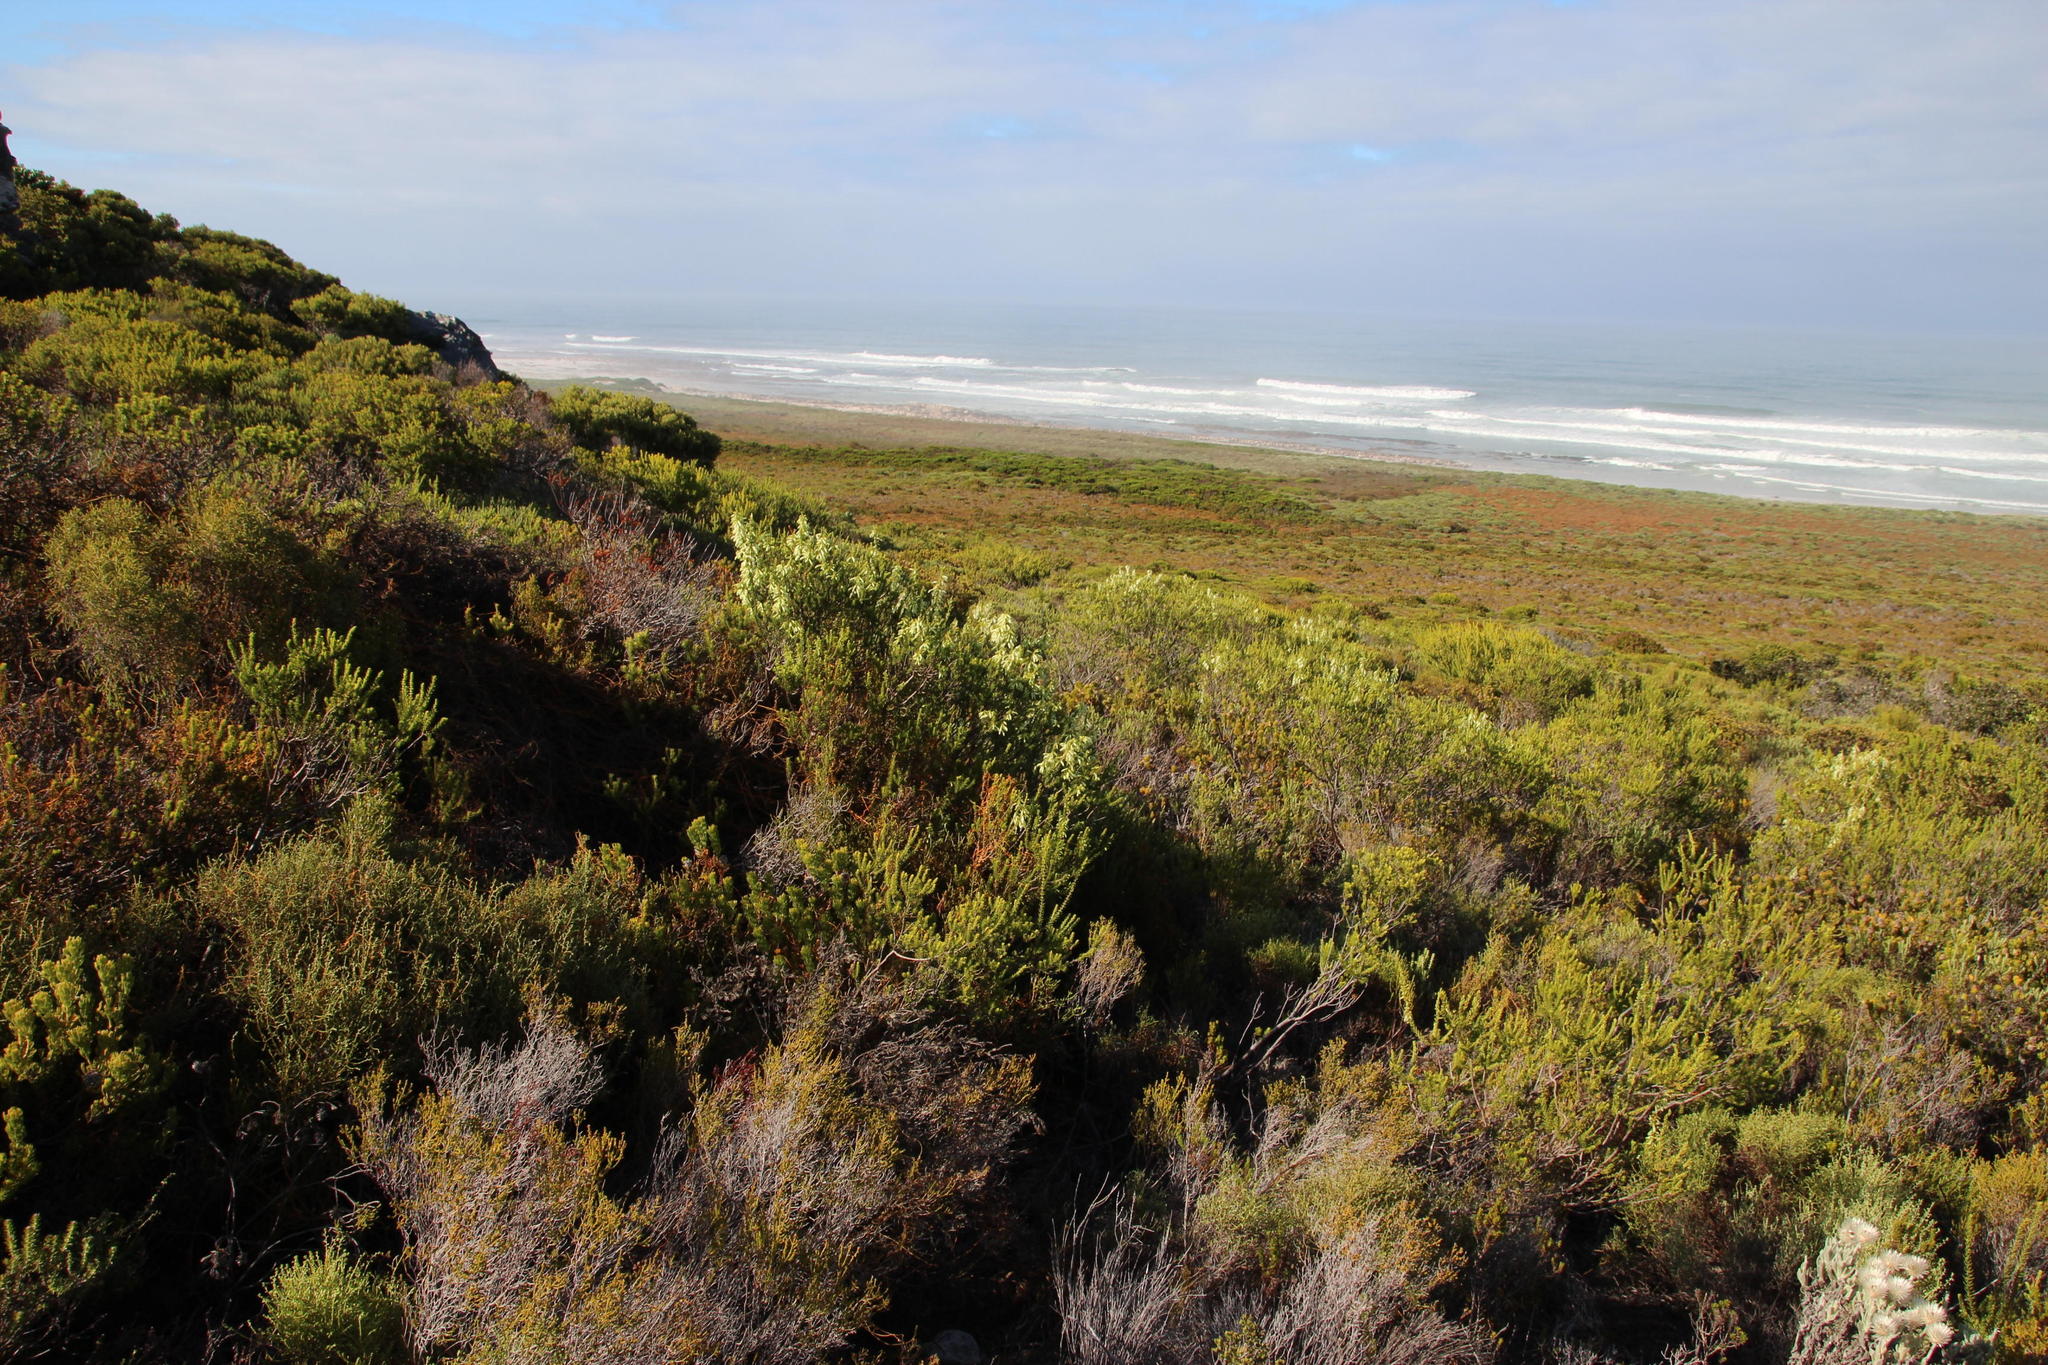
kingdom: Plantae
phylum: Tracheophyta
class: Magnoliopsida
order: Ericales
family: Ericaceae
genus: Erica
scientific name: Erica mammosa
